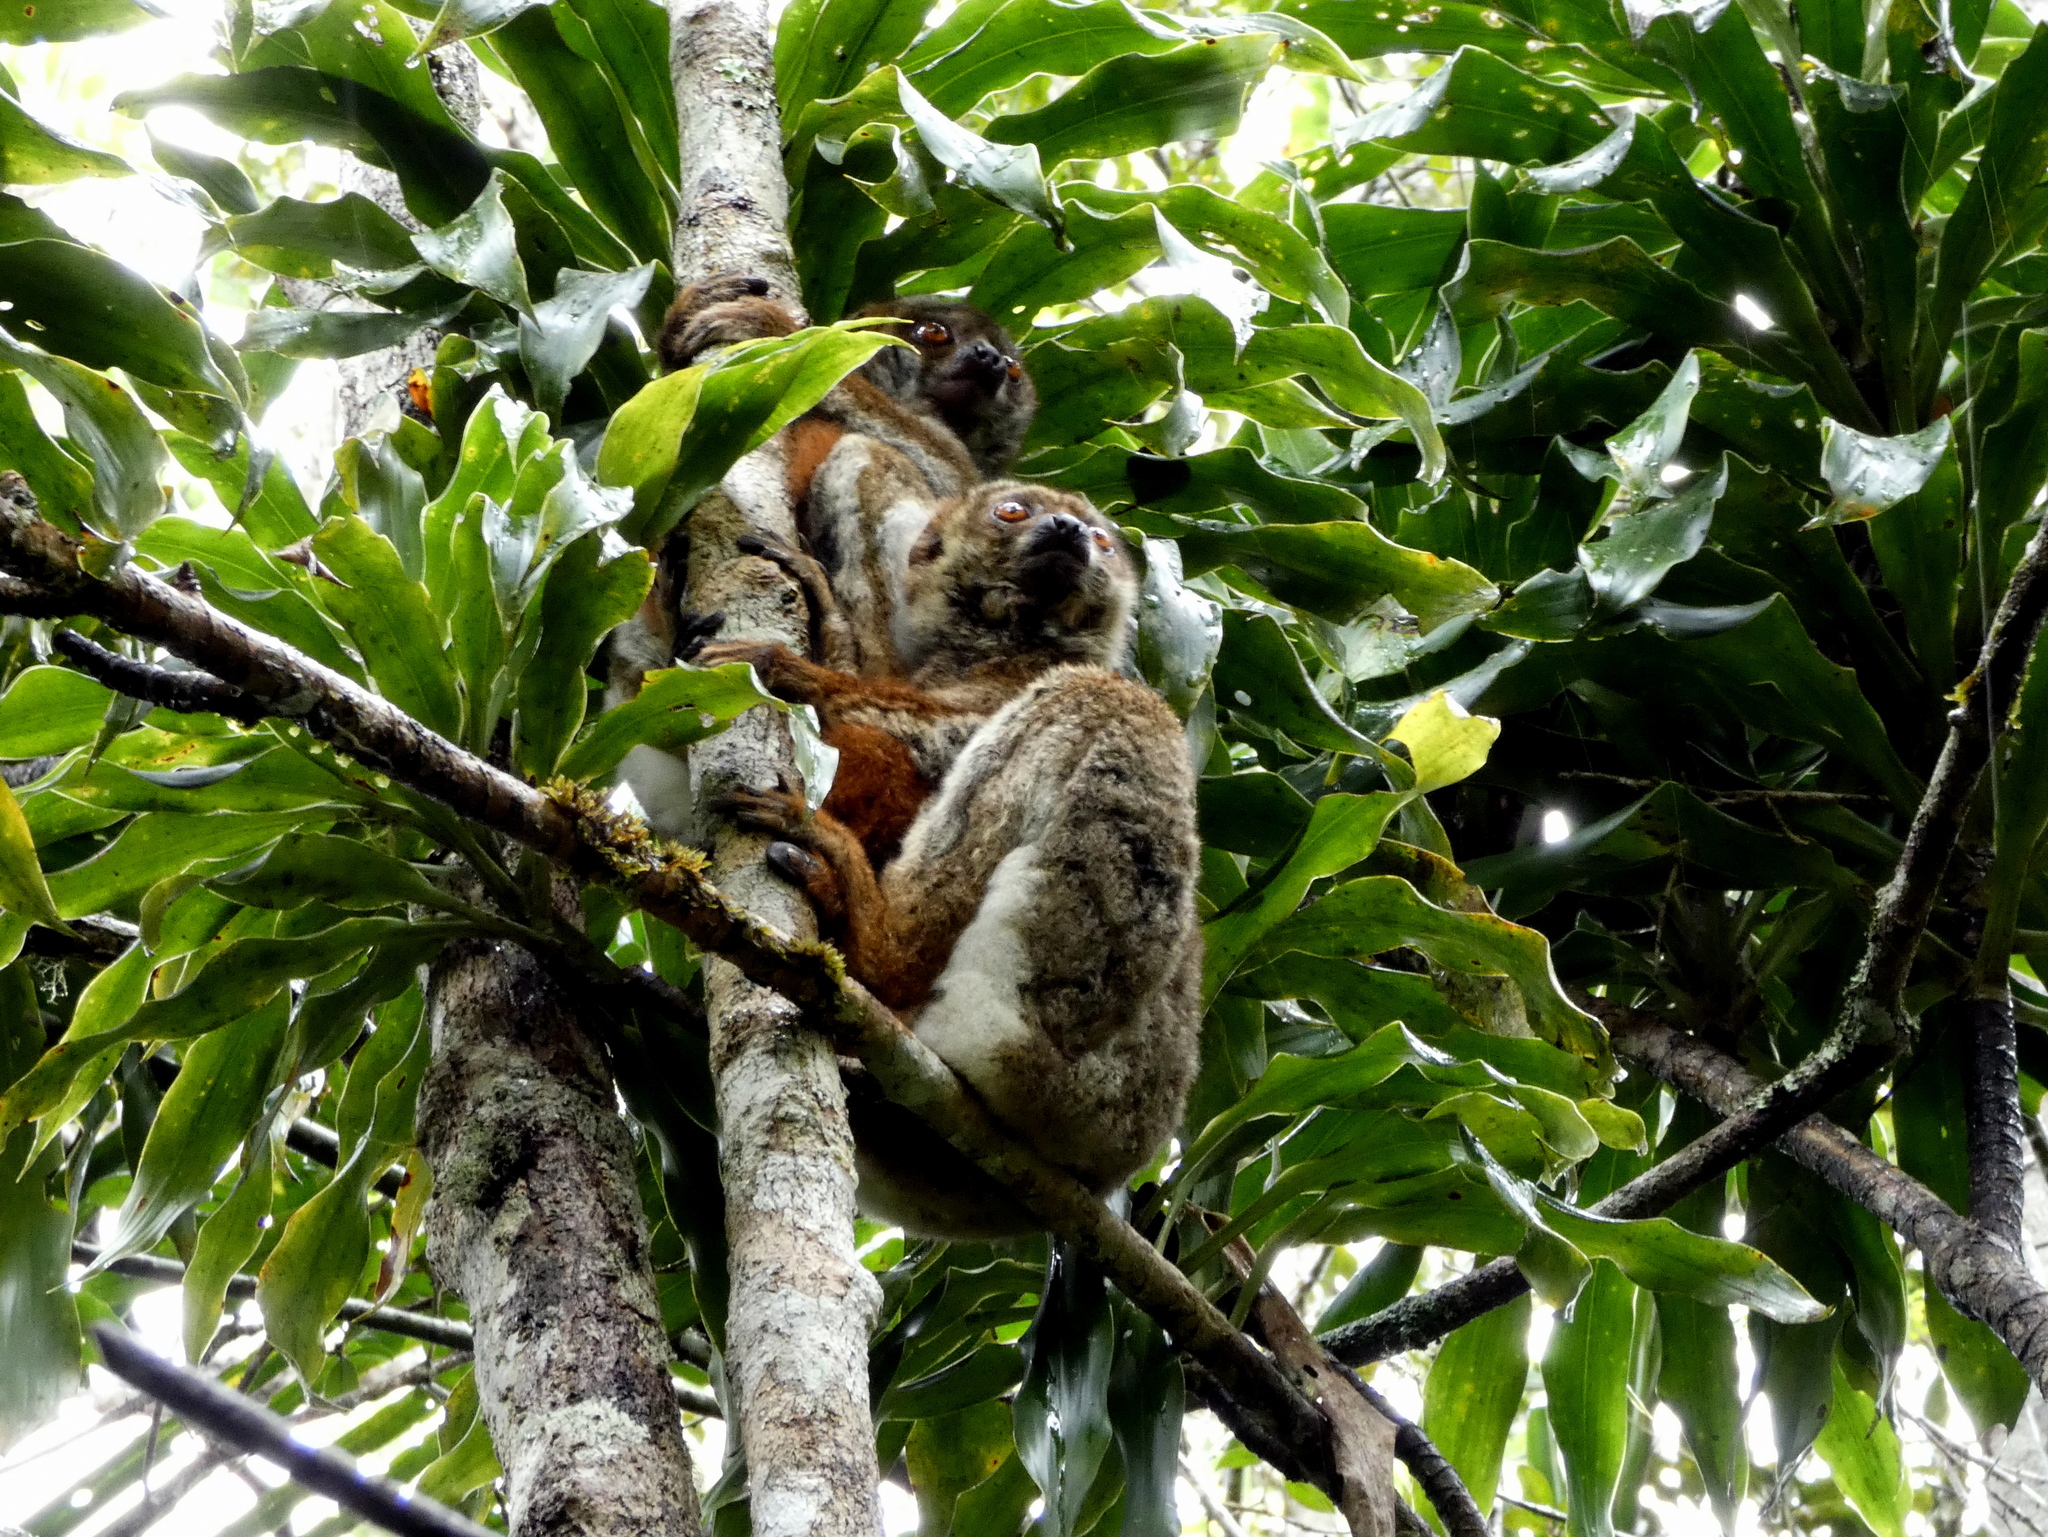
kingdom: Animalia
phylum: Chordata
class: Mammalia
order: Primates
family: Indriidae
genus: Avahi
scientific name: Avahi laniger
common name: Eastern woolly lemur
